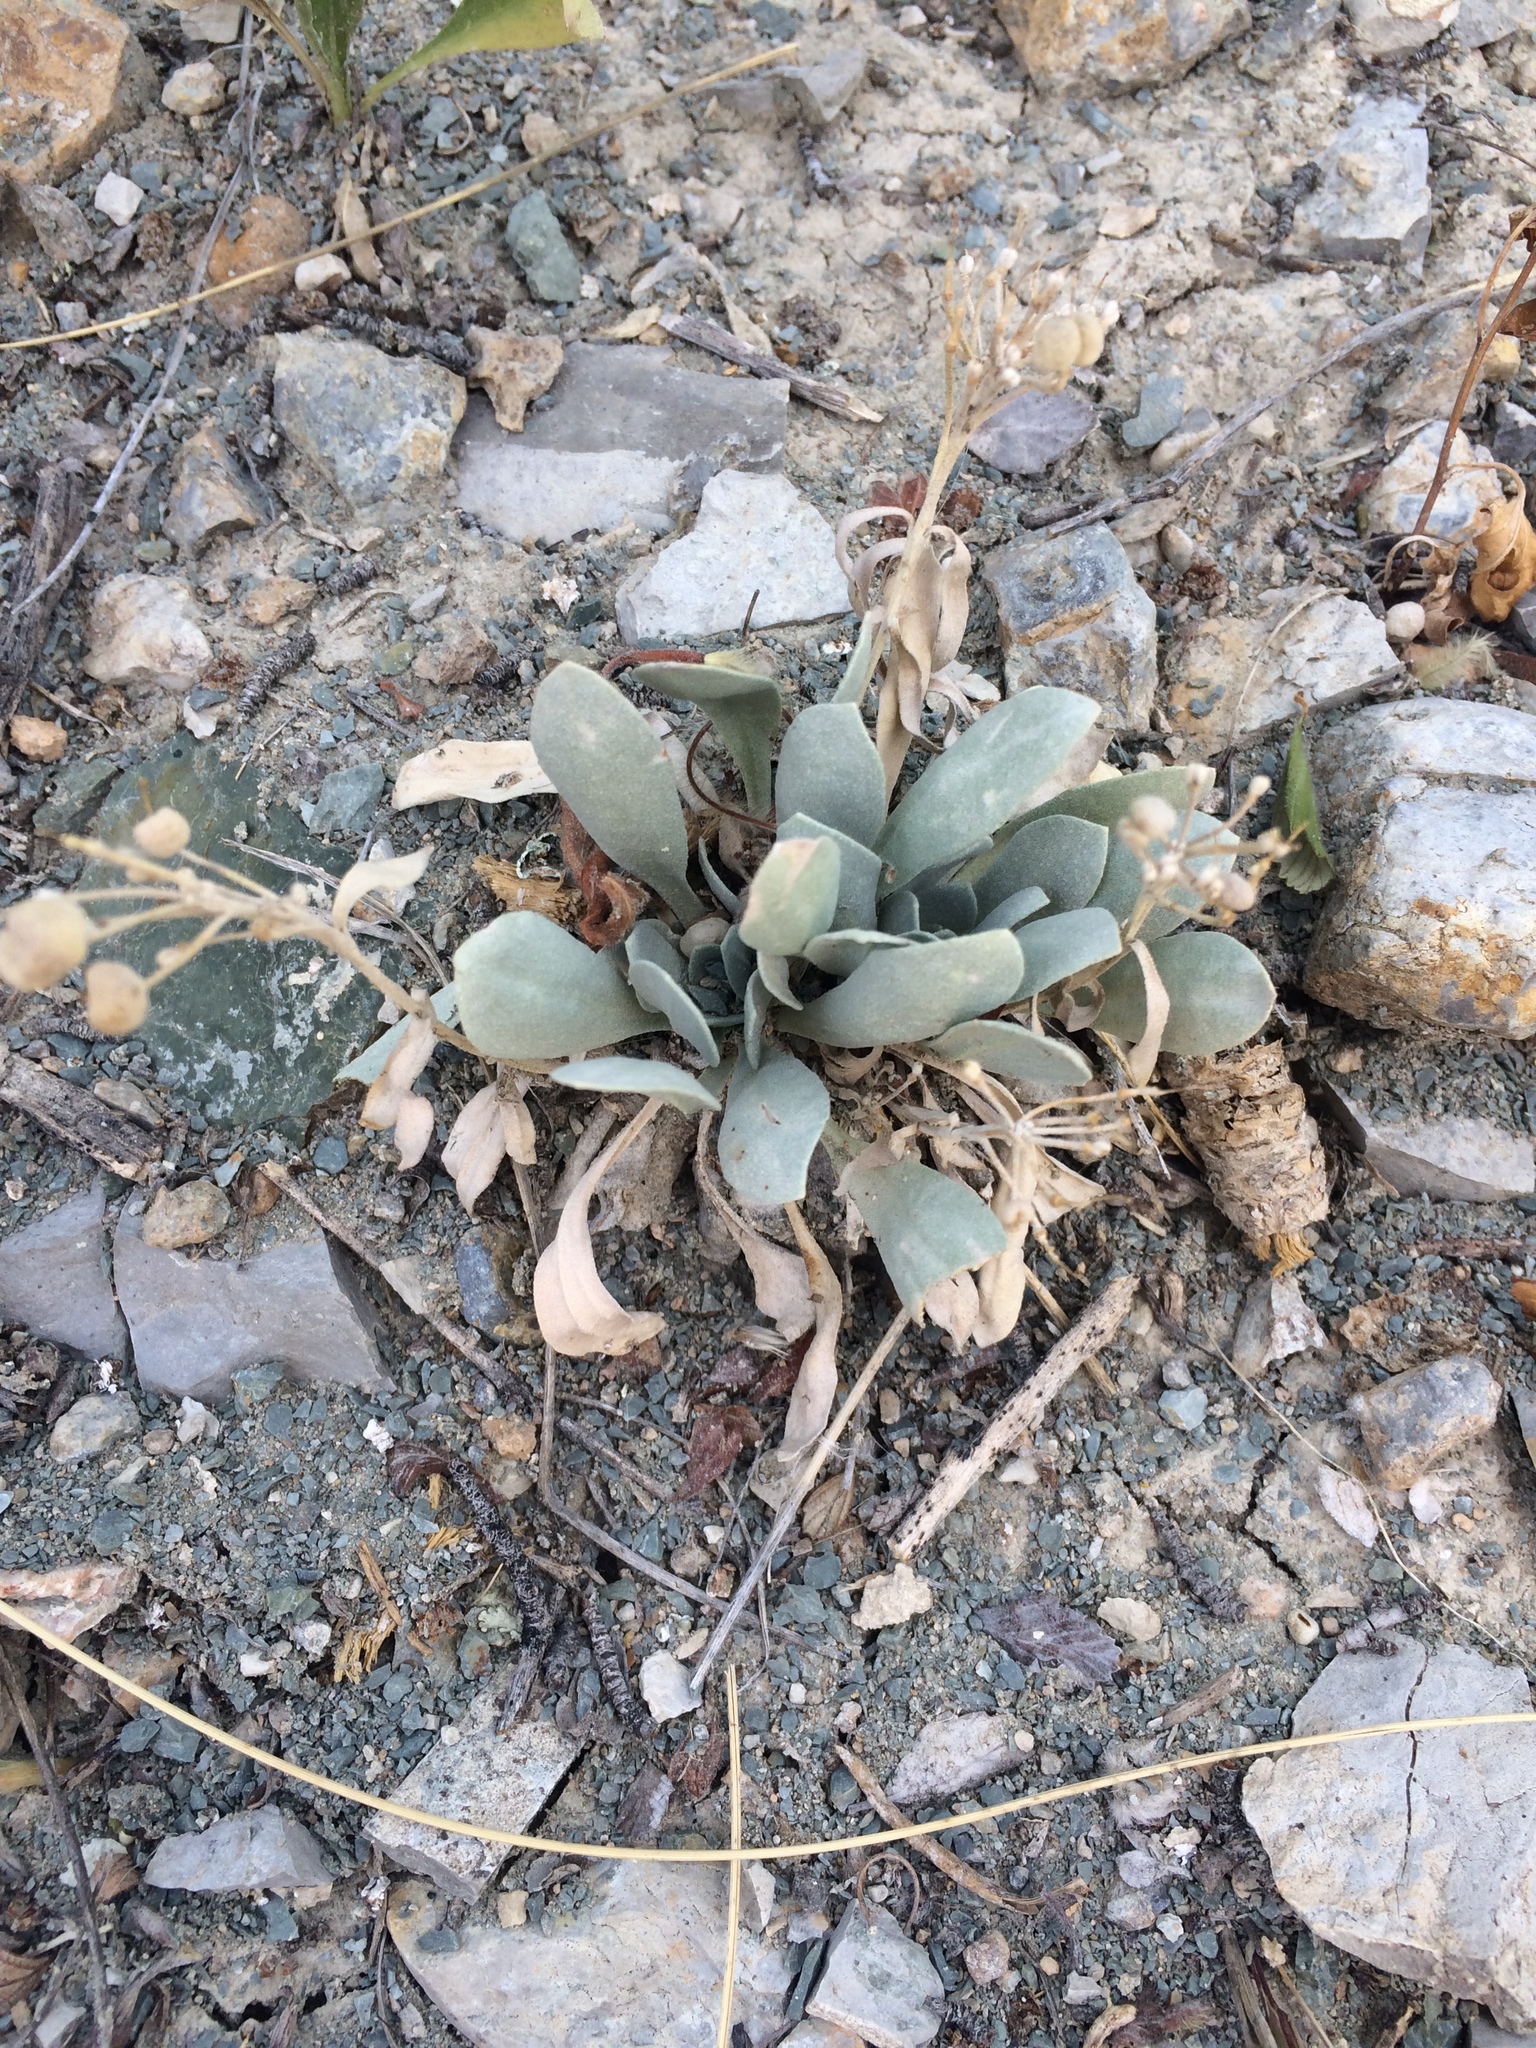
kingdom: Plantae
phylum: Tracheophyta
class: Magnoliopsida
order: Brassicales
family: Brassicaceae
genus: Physaria
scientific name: Physaria bellii
